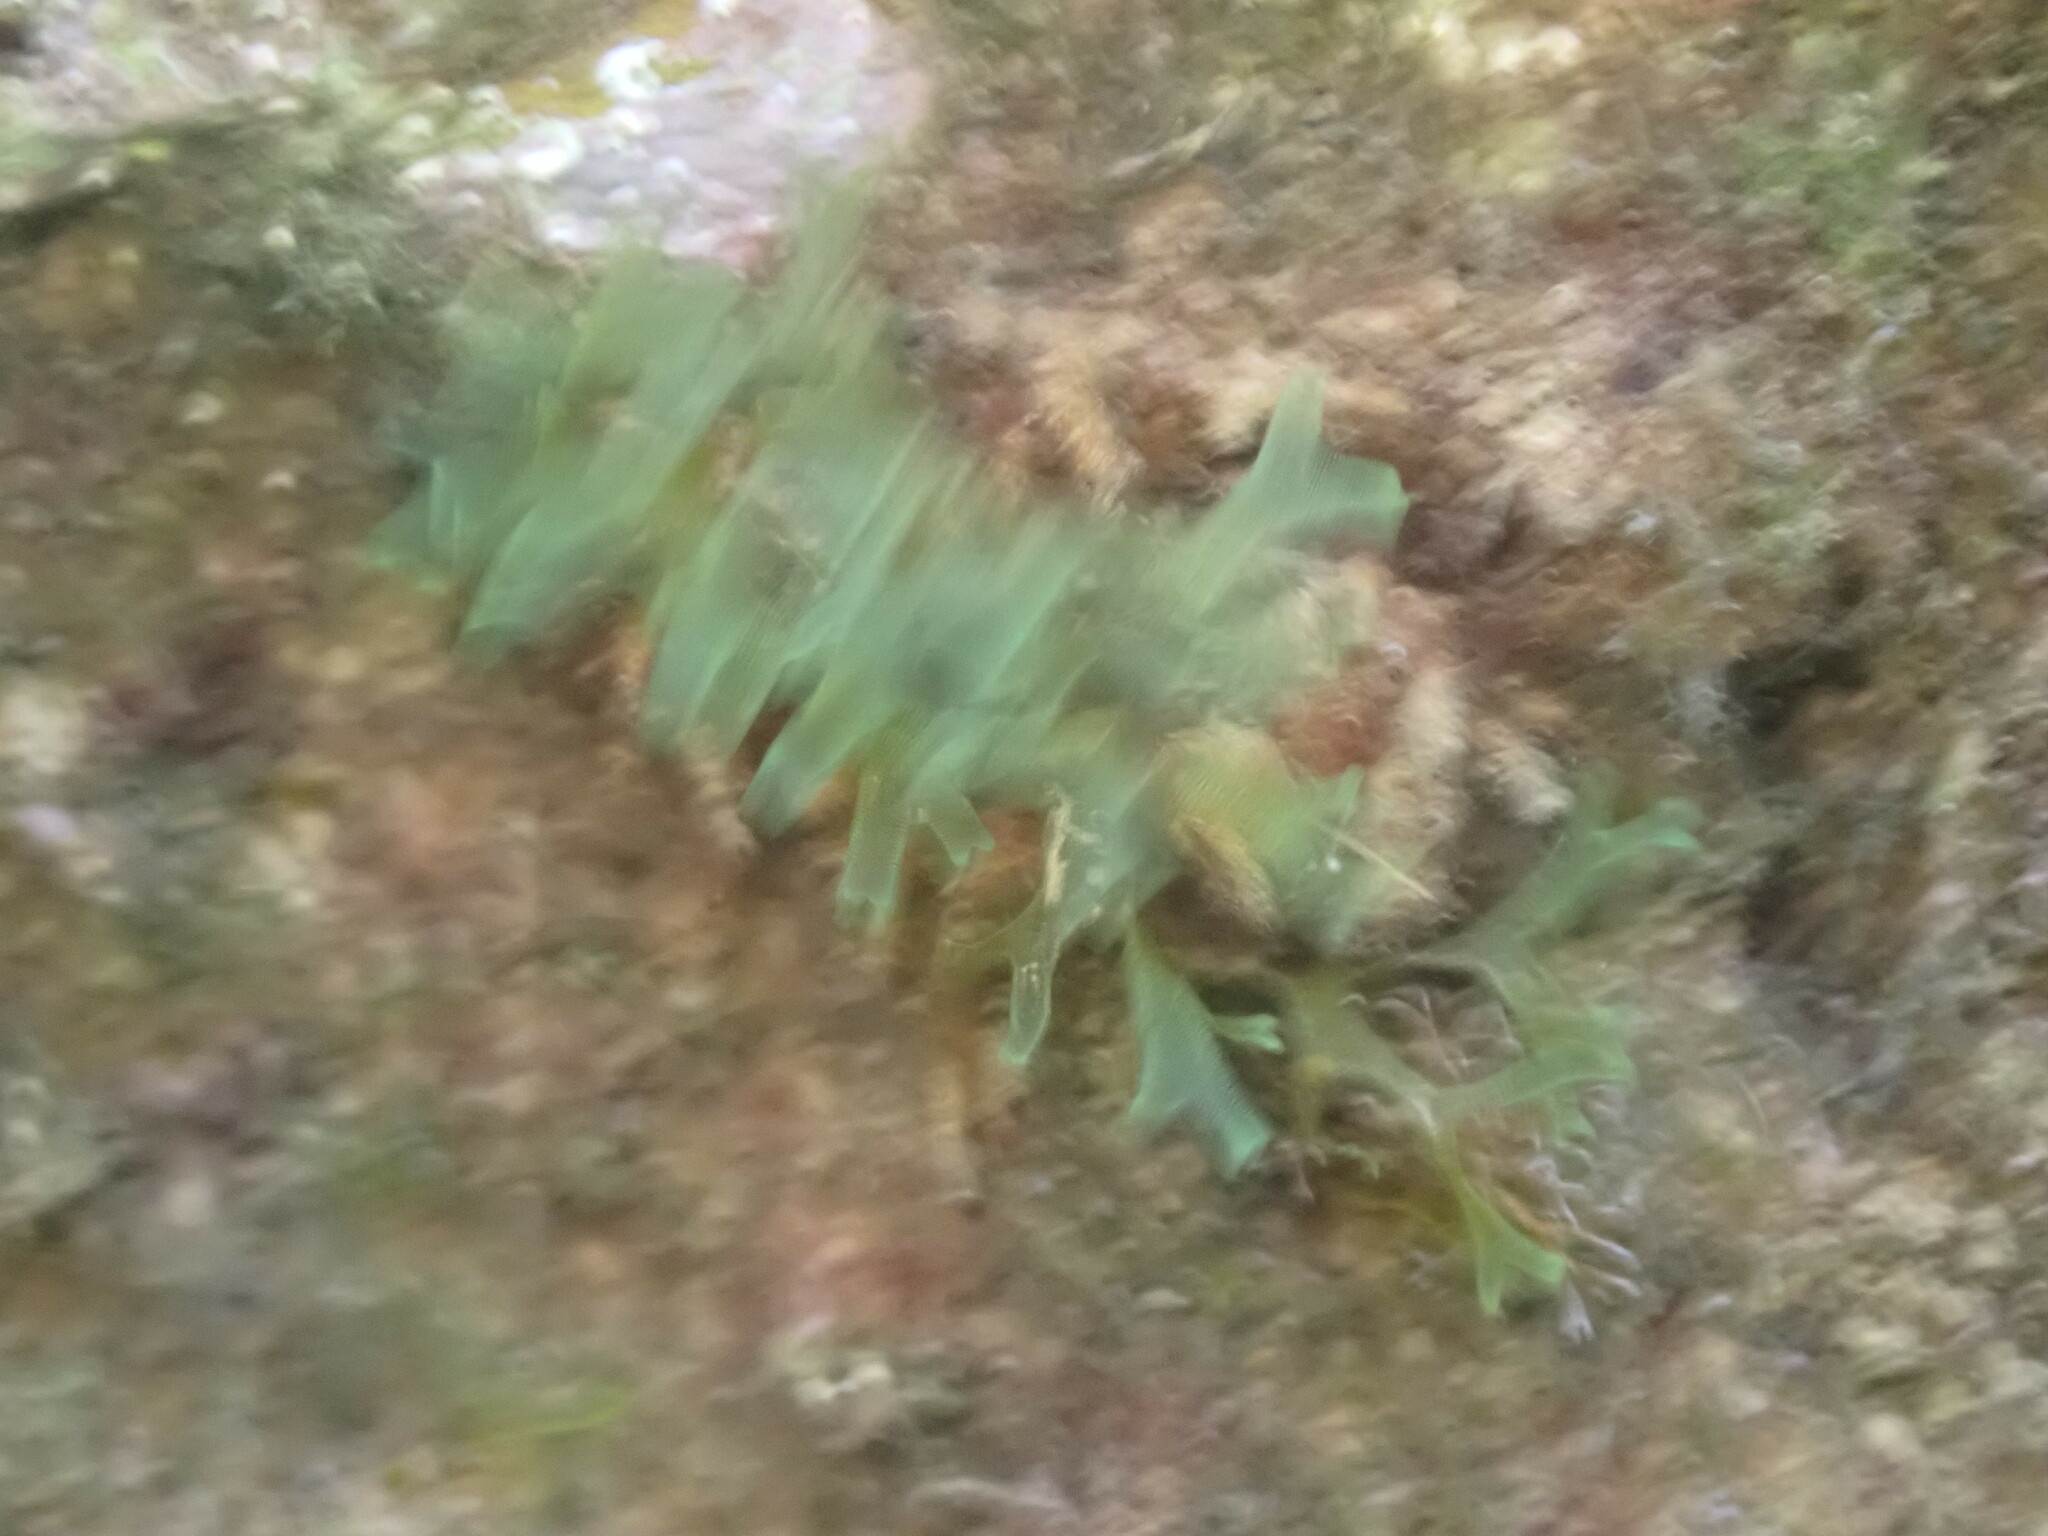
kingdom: Chromista
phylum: Ochrophyta
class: Phaeophyceae
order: Dictyotales
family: Dictyotaceae
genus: Dictyota
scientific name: Dictyota dichotoma
